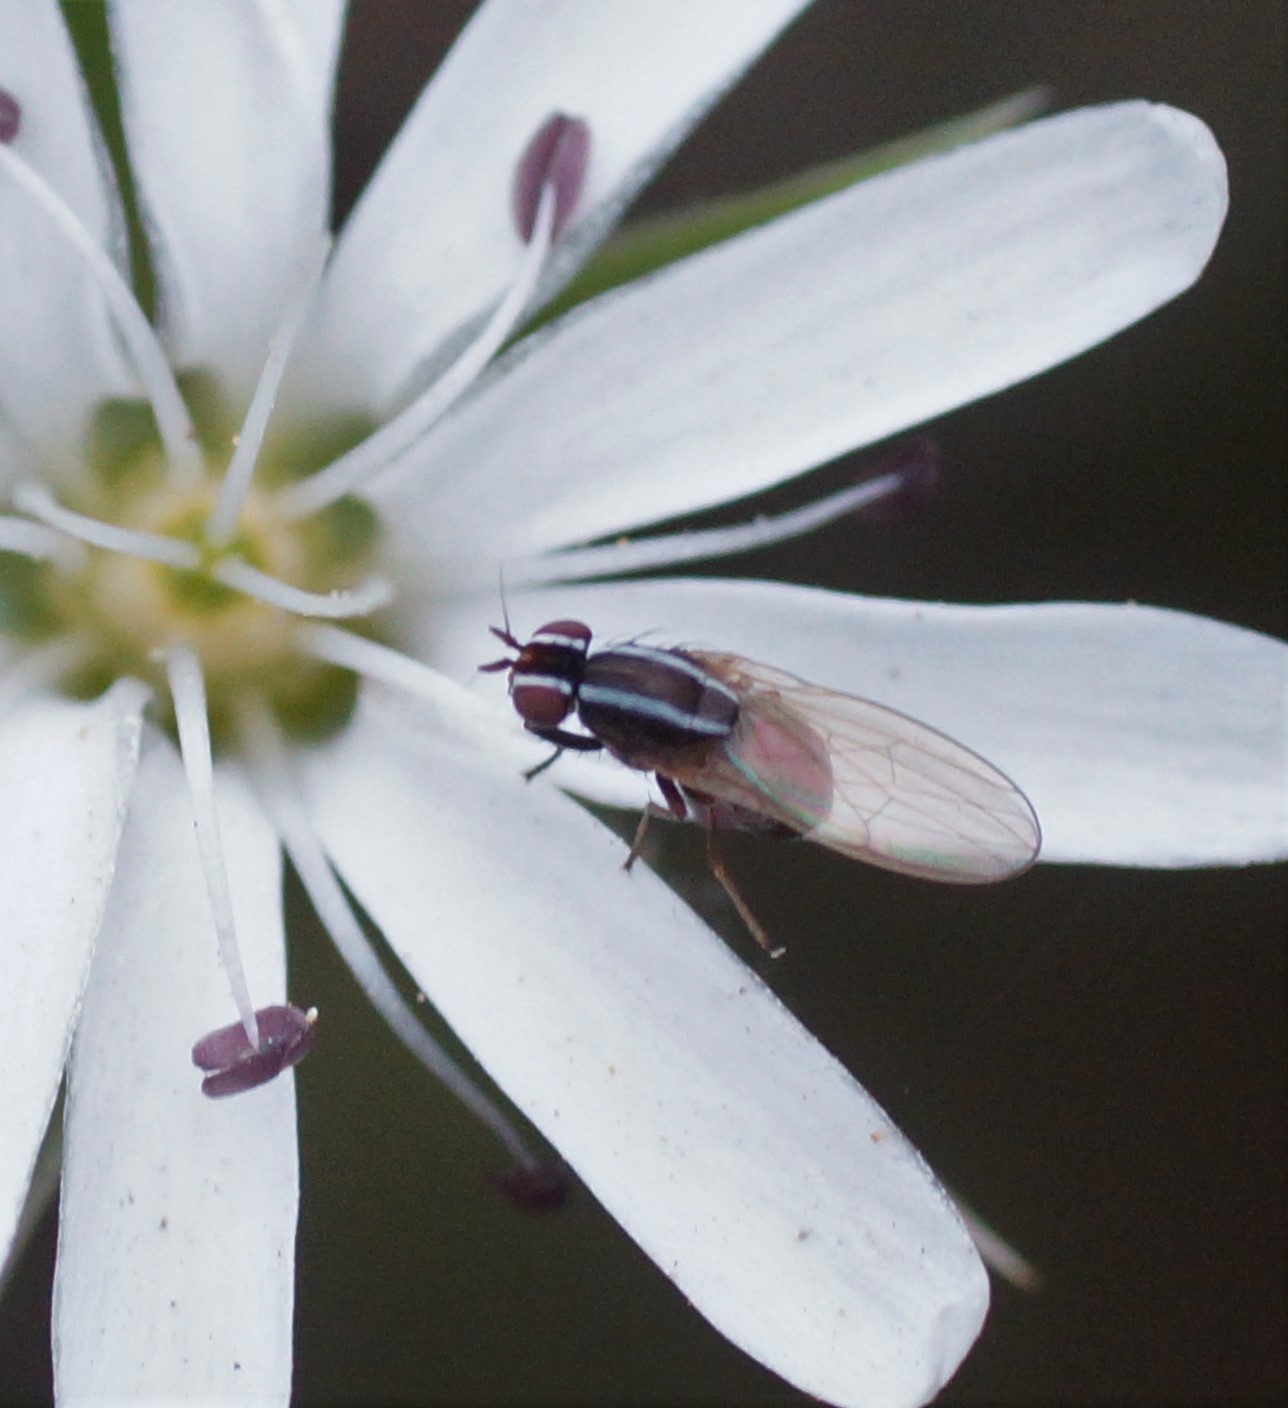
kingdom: Animalia
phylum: Arthropoda
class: Insecta
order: Diptera
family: Lauxaniidae
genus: Poecilohetaerus
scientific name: Poecilohetaerus aquilus
